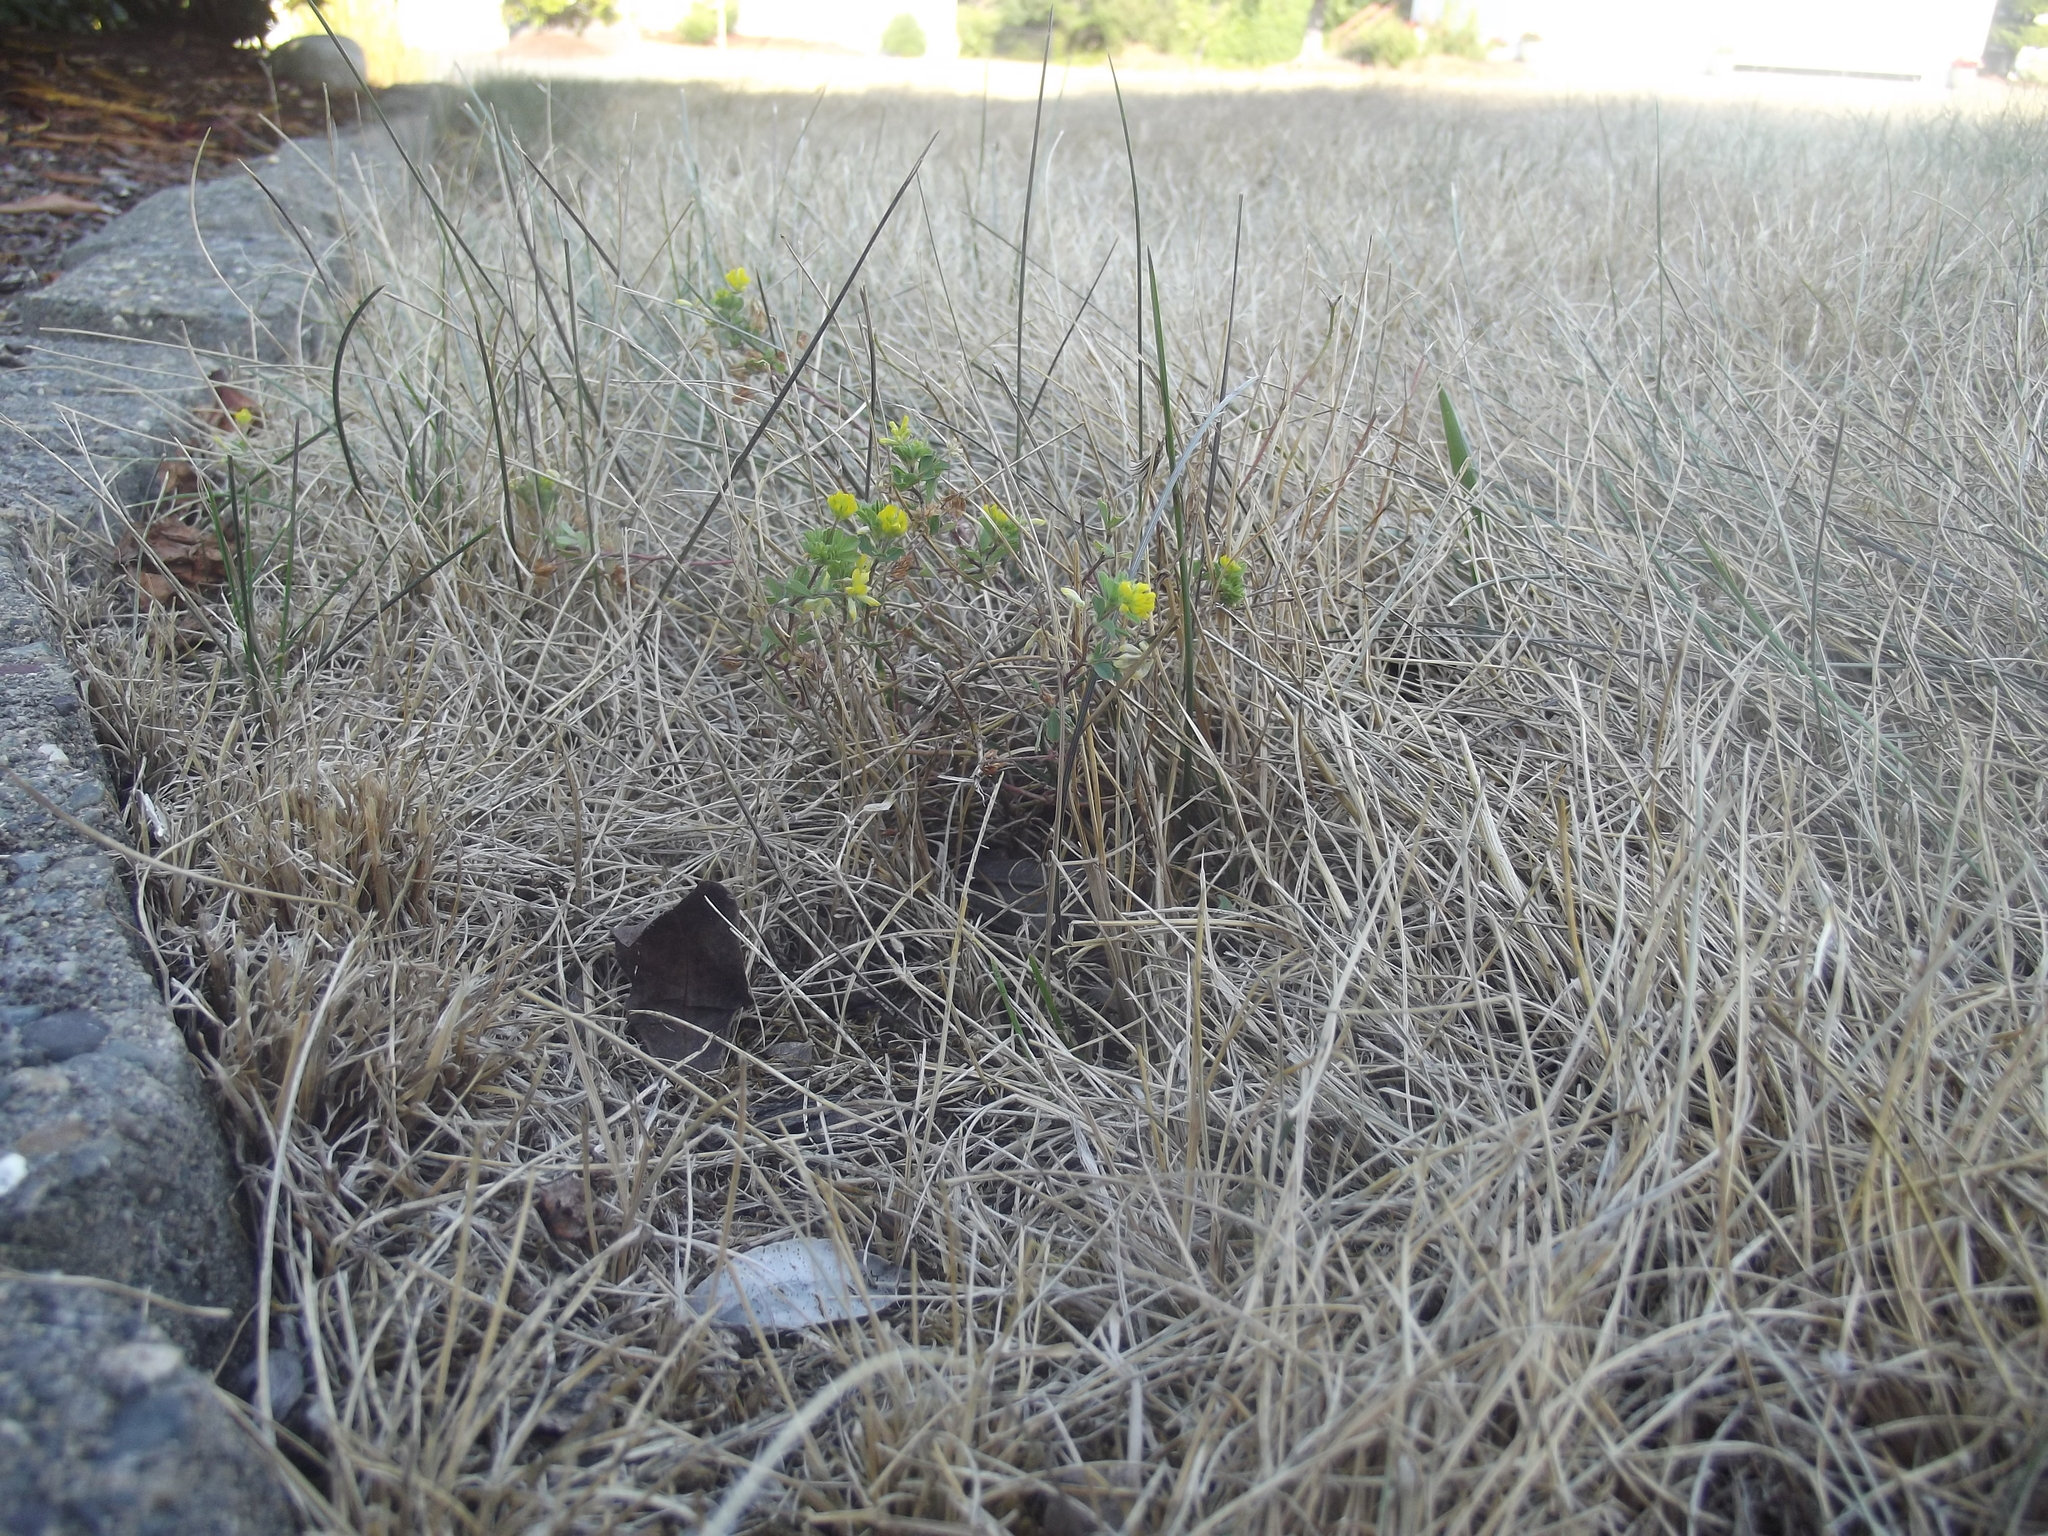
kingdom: Plantae
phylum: Tracheophyta
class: Magnoliopsida
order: Fabales
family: Fabaceae
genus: Trifolium
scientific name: Trifolium dubium
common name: Suckling clover
